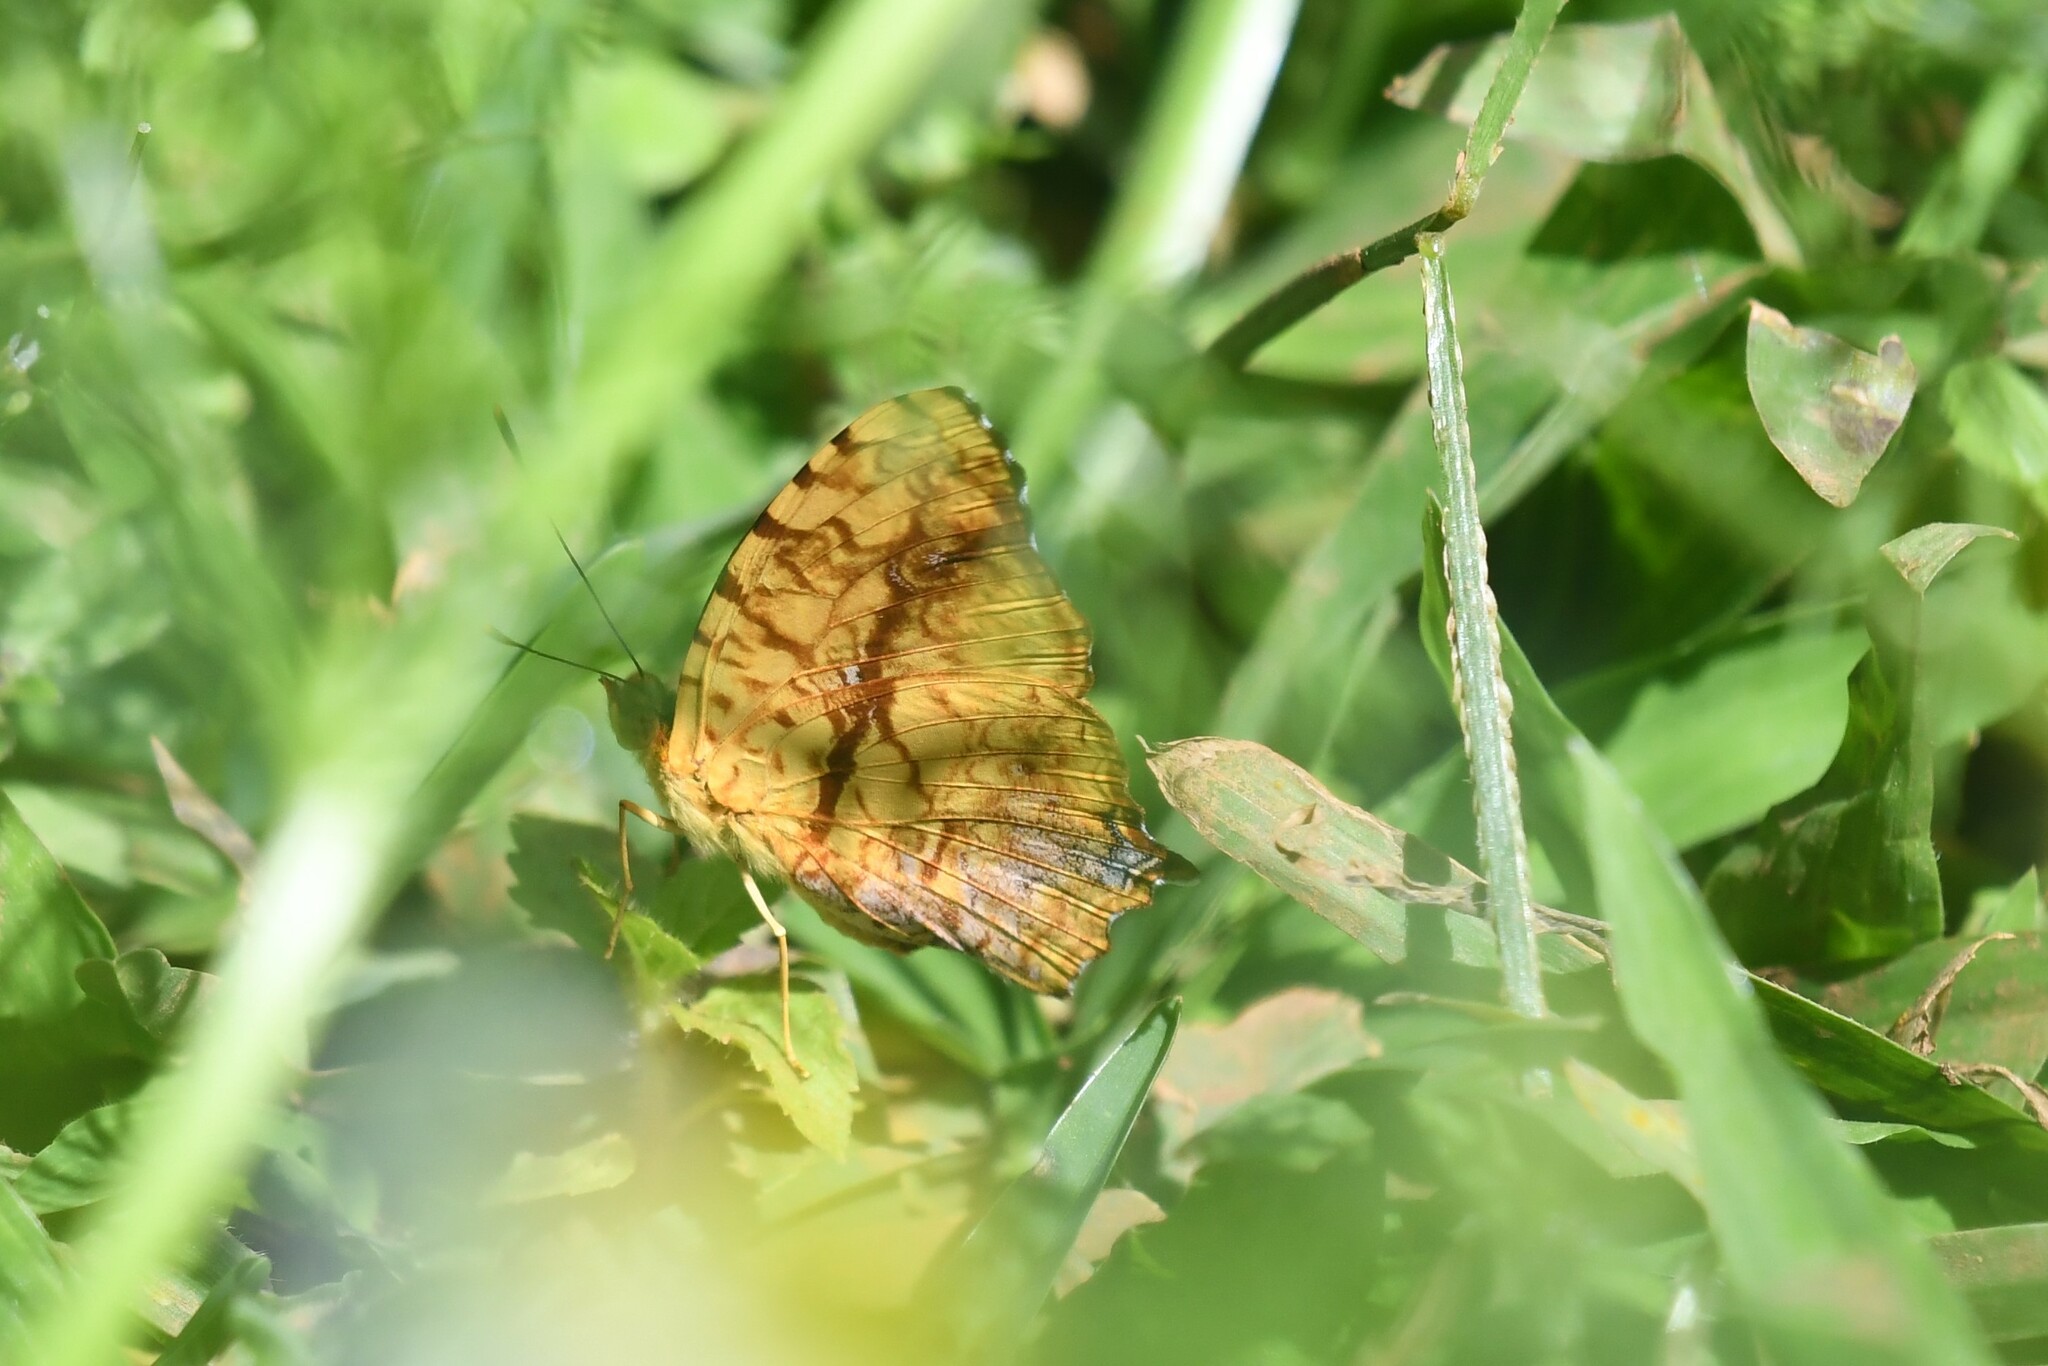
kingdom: Animalia
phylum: Arthropoda
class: Insecta
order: Lepidoptera
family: Nymphalidae
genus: Symbrenthia
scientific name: Symbrenthia hypselis
